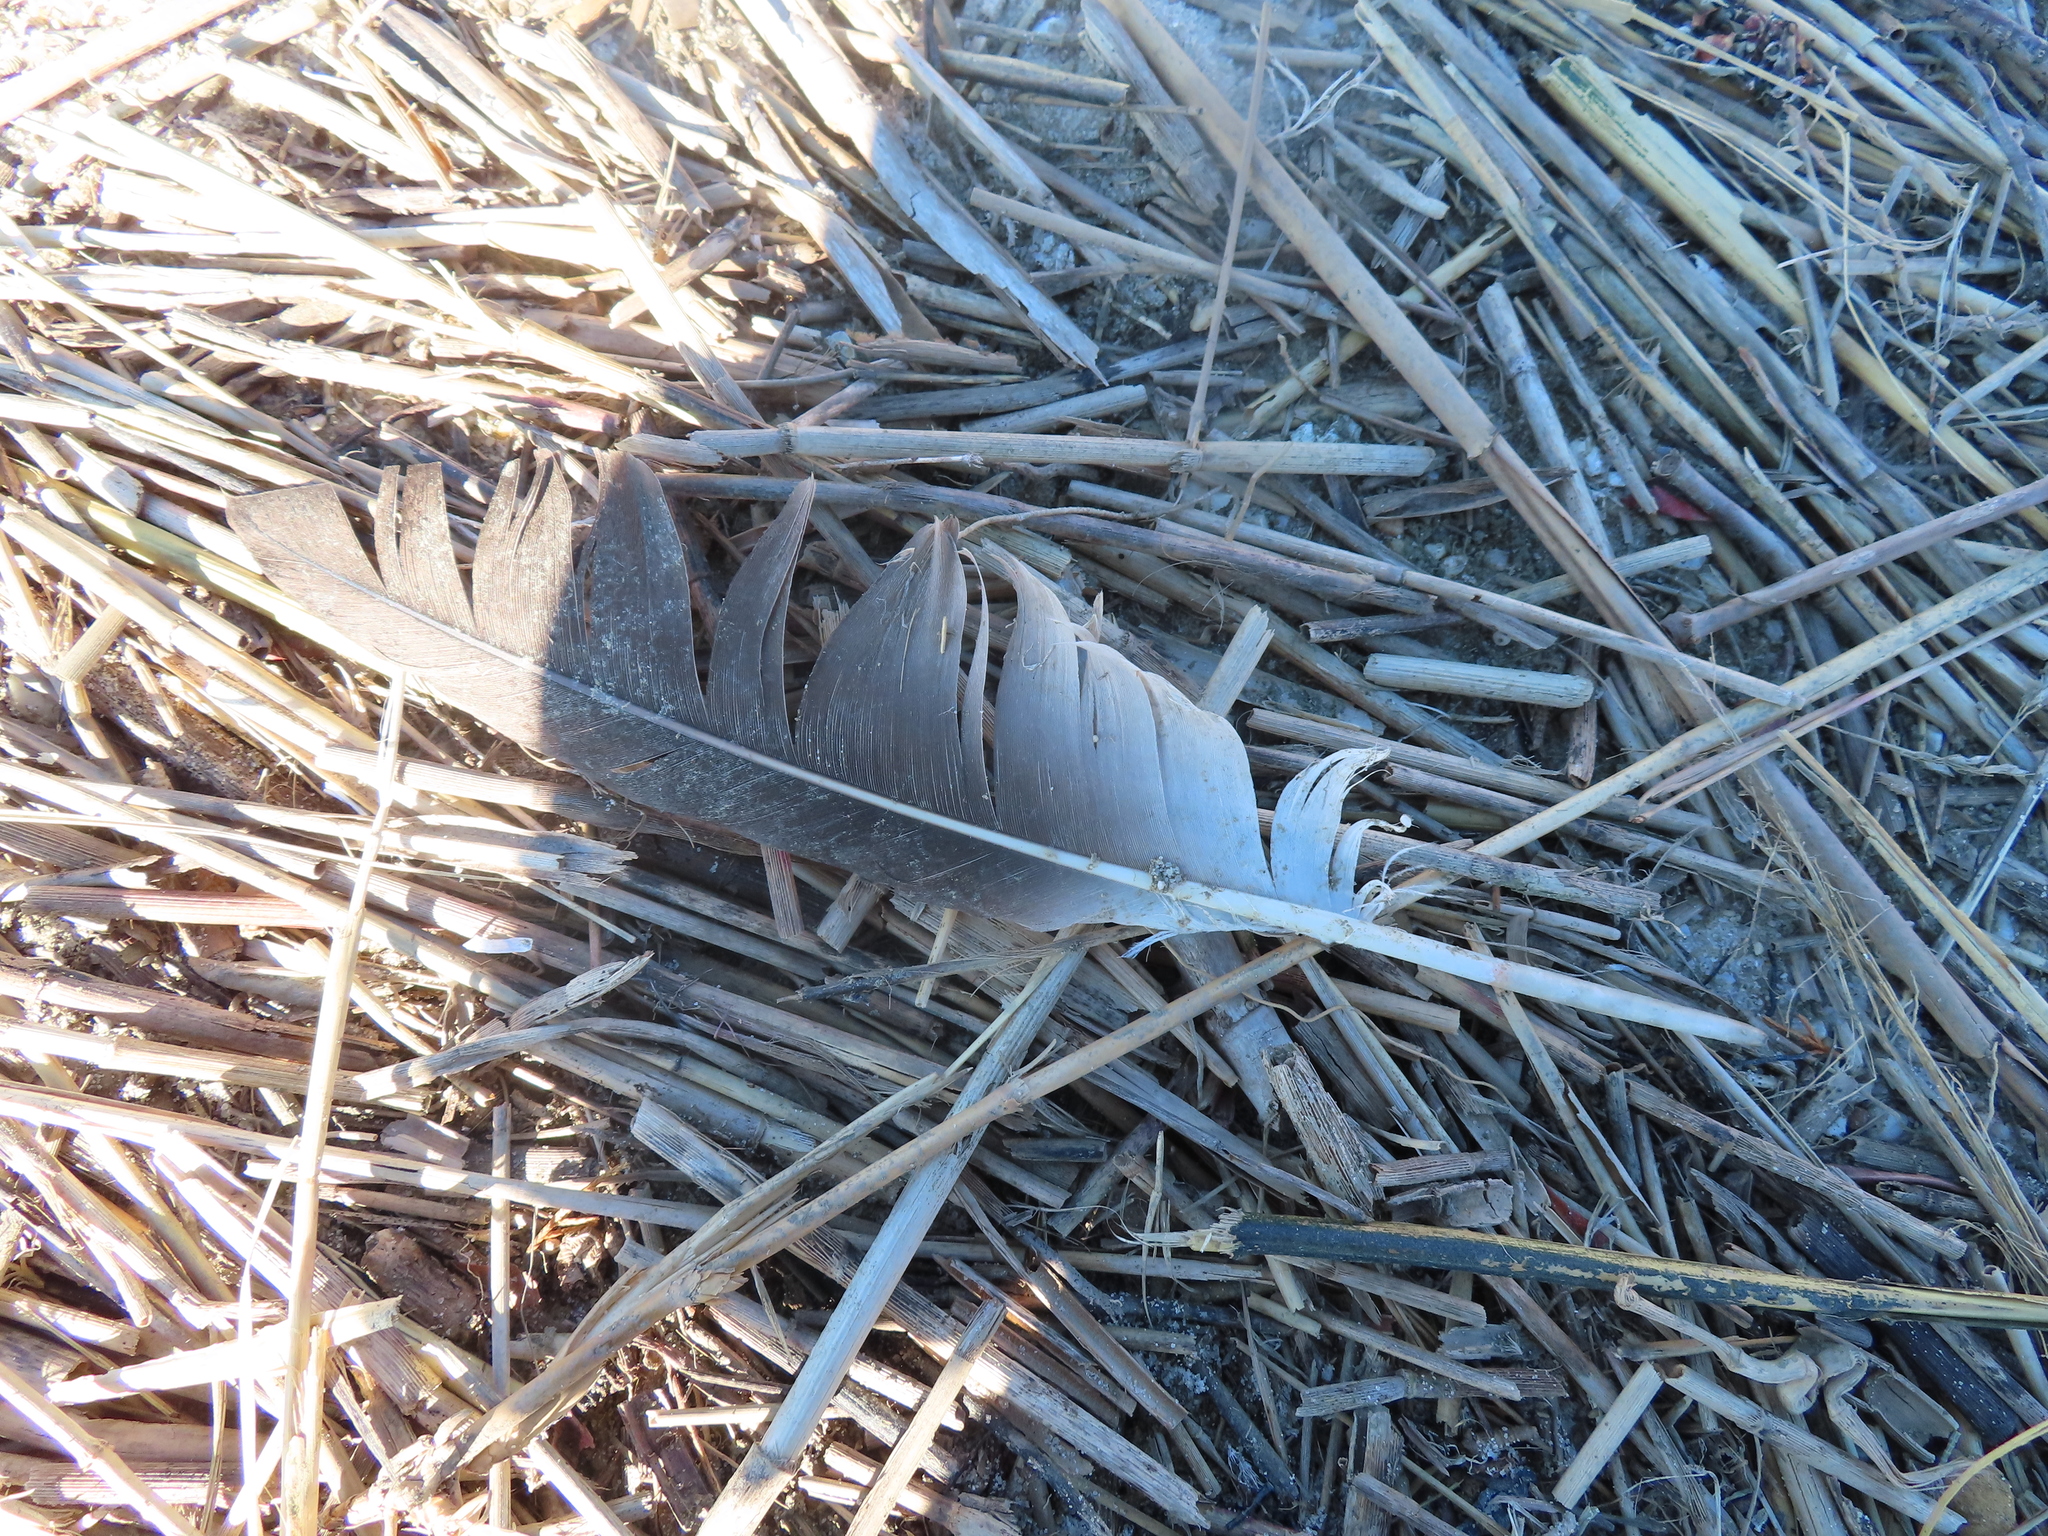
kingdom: Animalia
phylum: Chordata
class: Aves
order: Suliformes
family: Sulidae
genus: Morus
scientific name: Morus bassanus
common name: Northern gannet
